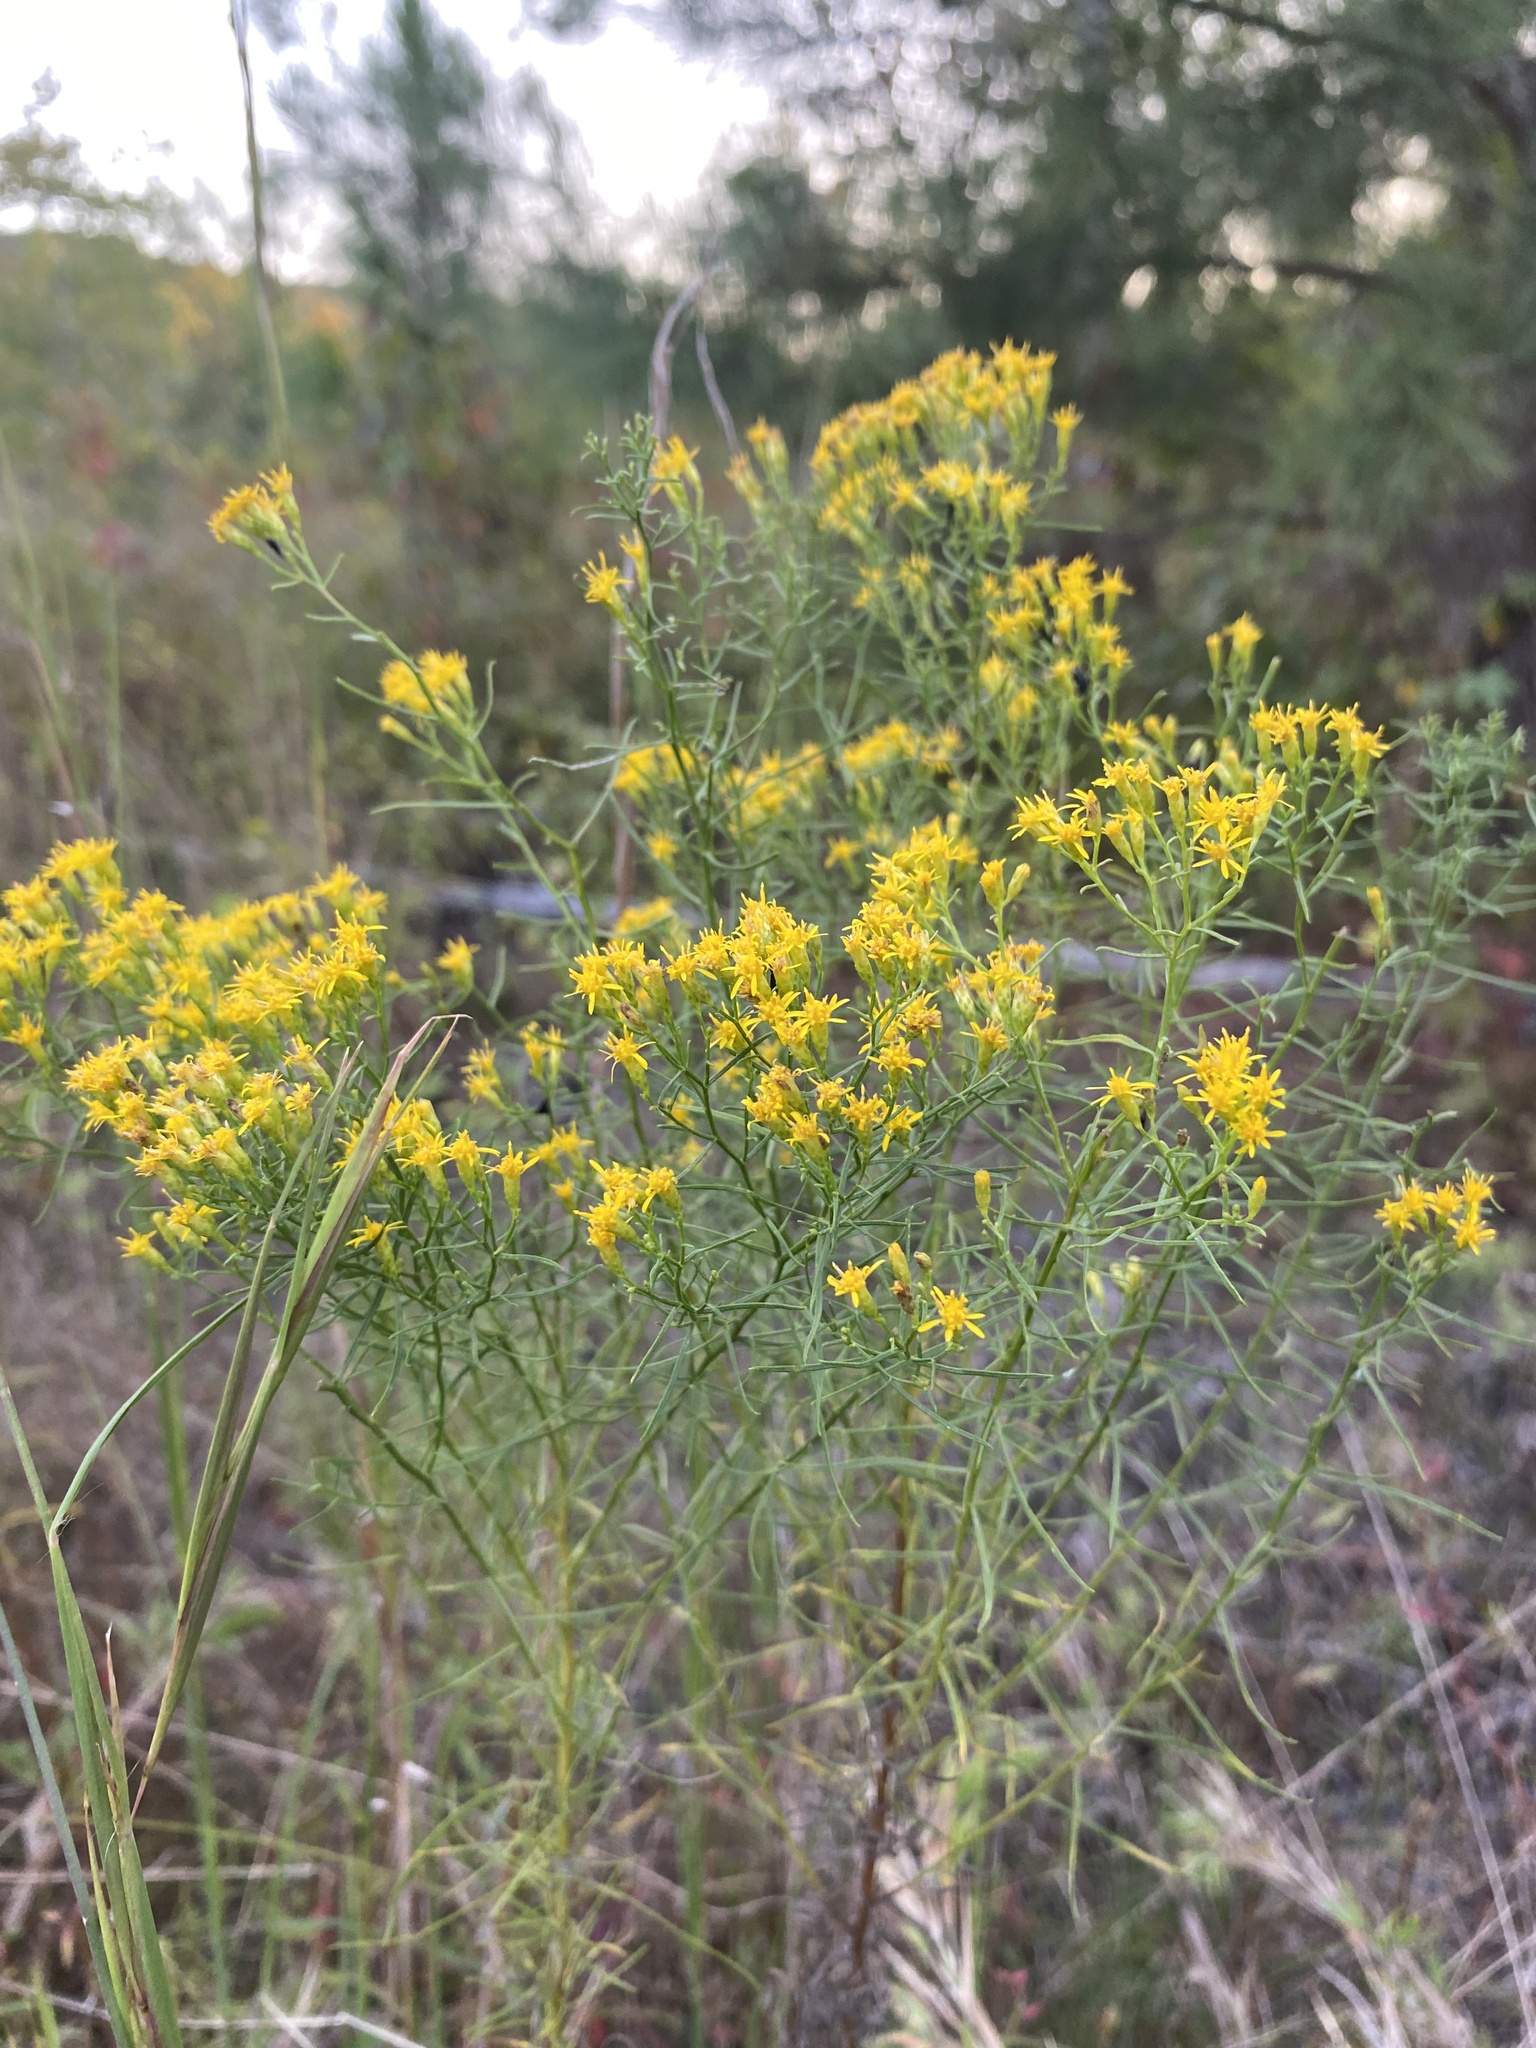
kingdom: Plantae
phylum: Tracheophyta
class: Magnoliopsida
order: Asterales
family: Asteraceae
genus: Euthamia
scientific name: Euthamia caroliniana
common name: Coastal plain goldentop
